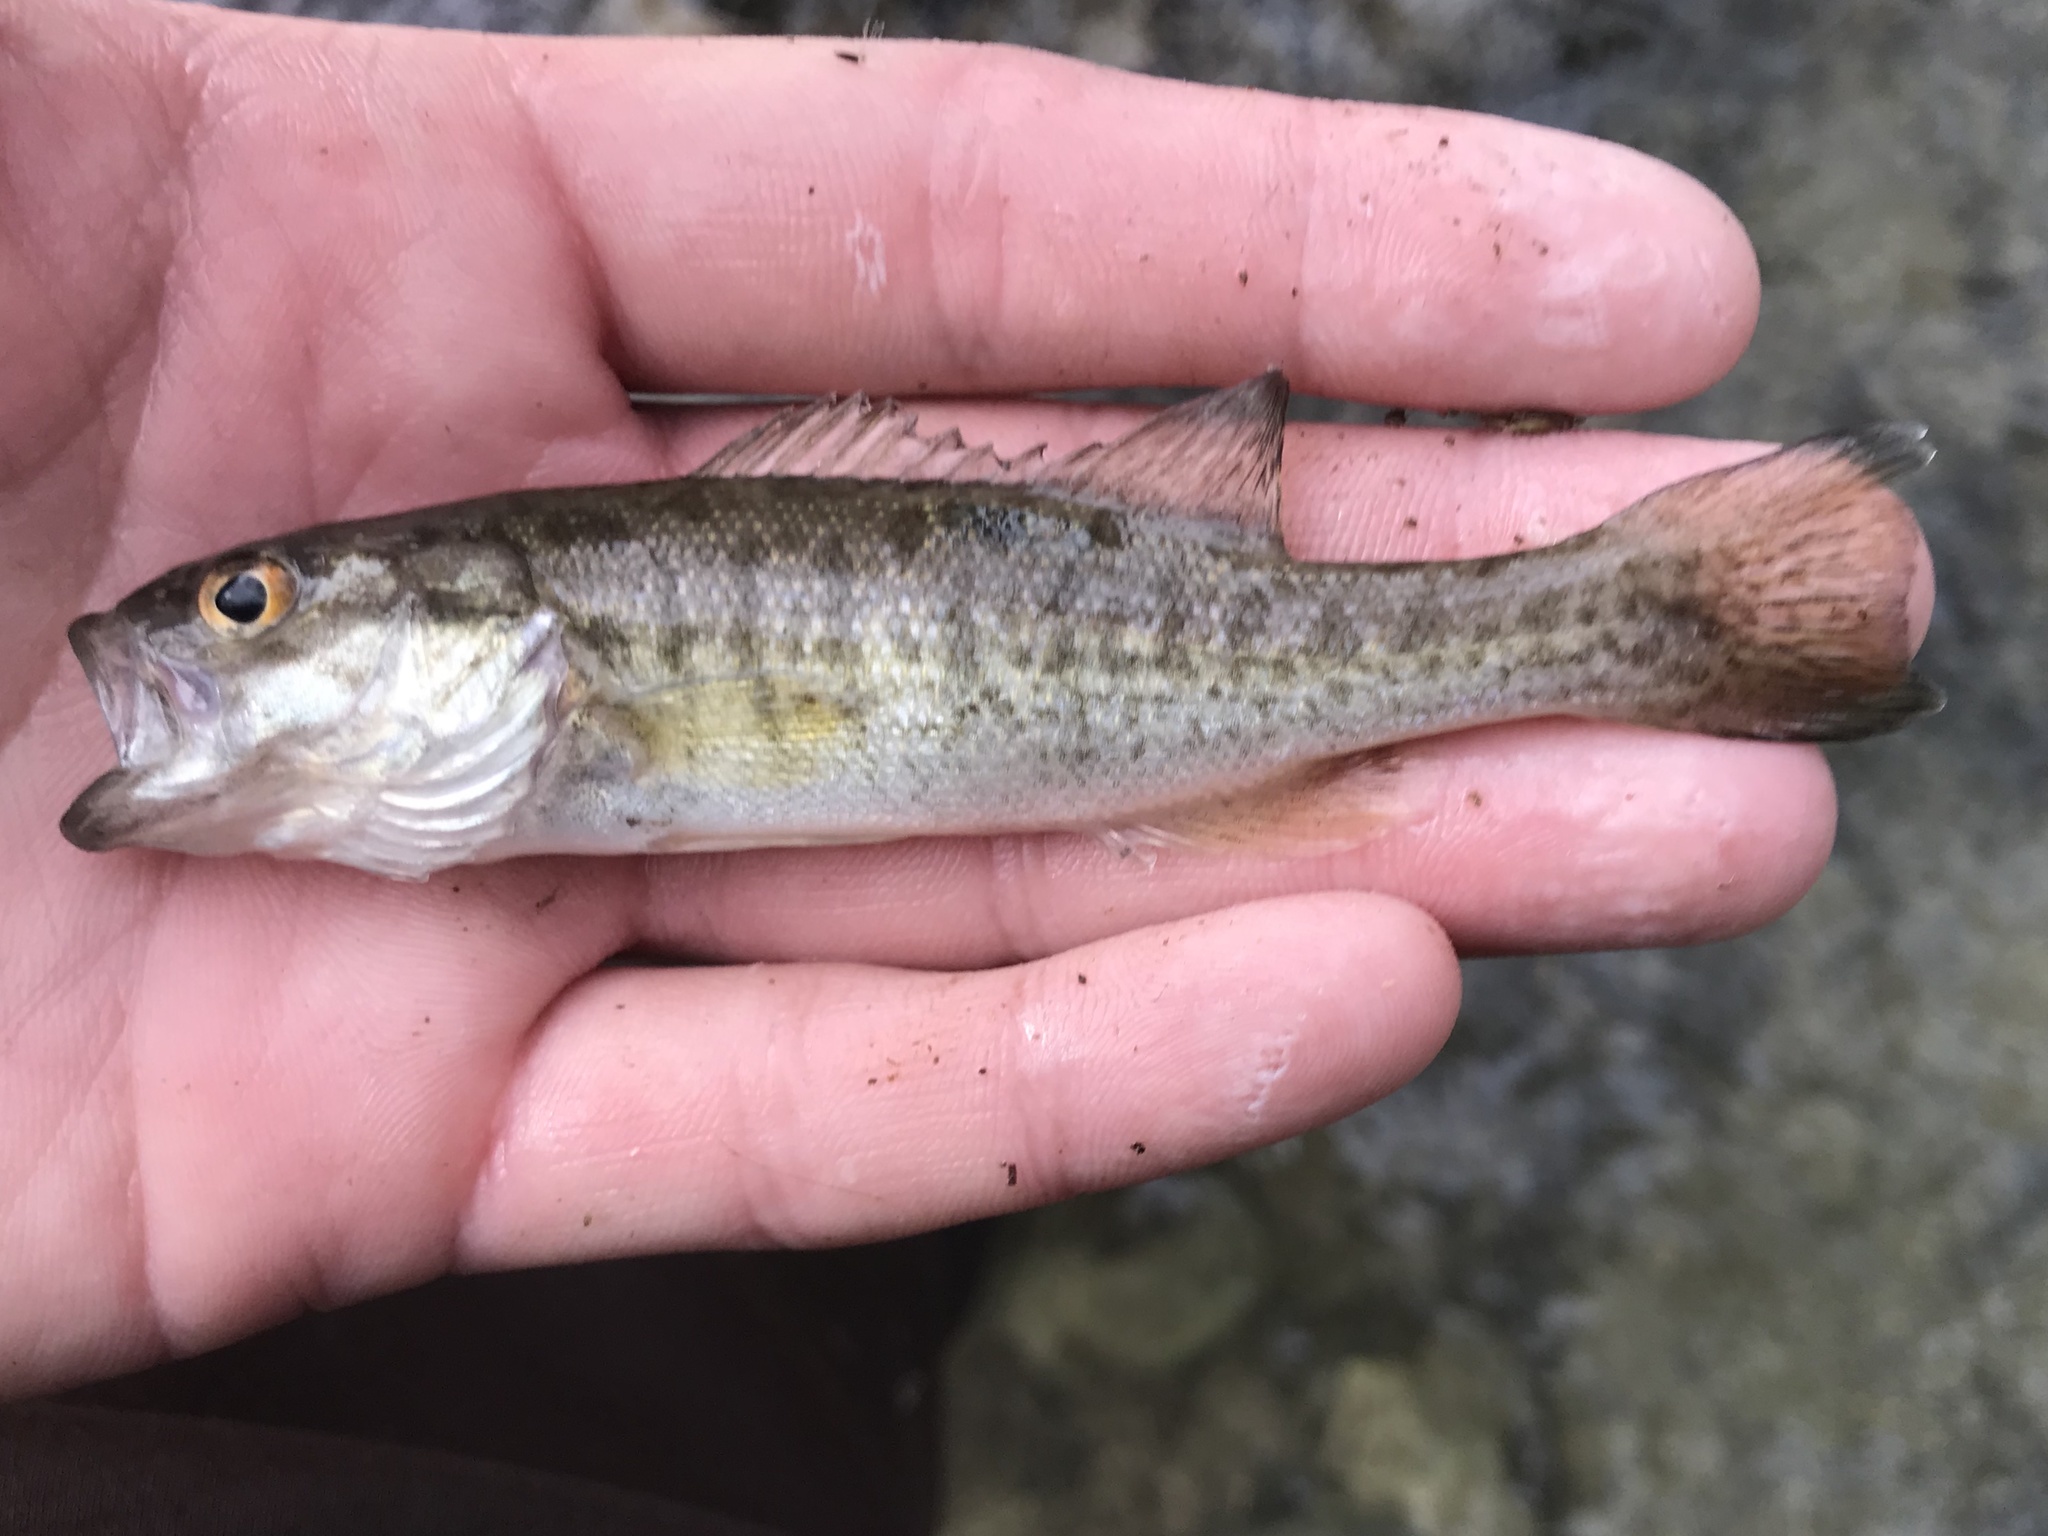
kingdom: Animalia
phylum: Chordata
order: Perciformes
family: Centrarchidae
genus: Micropterus
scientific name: Micropterus treculii
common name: Guadalupe bass
